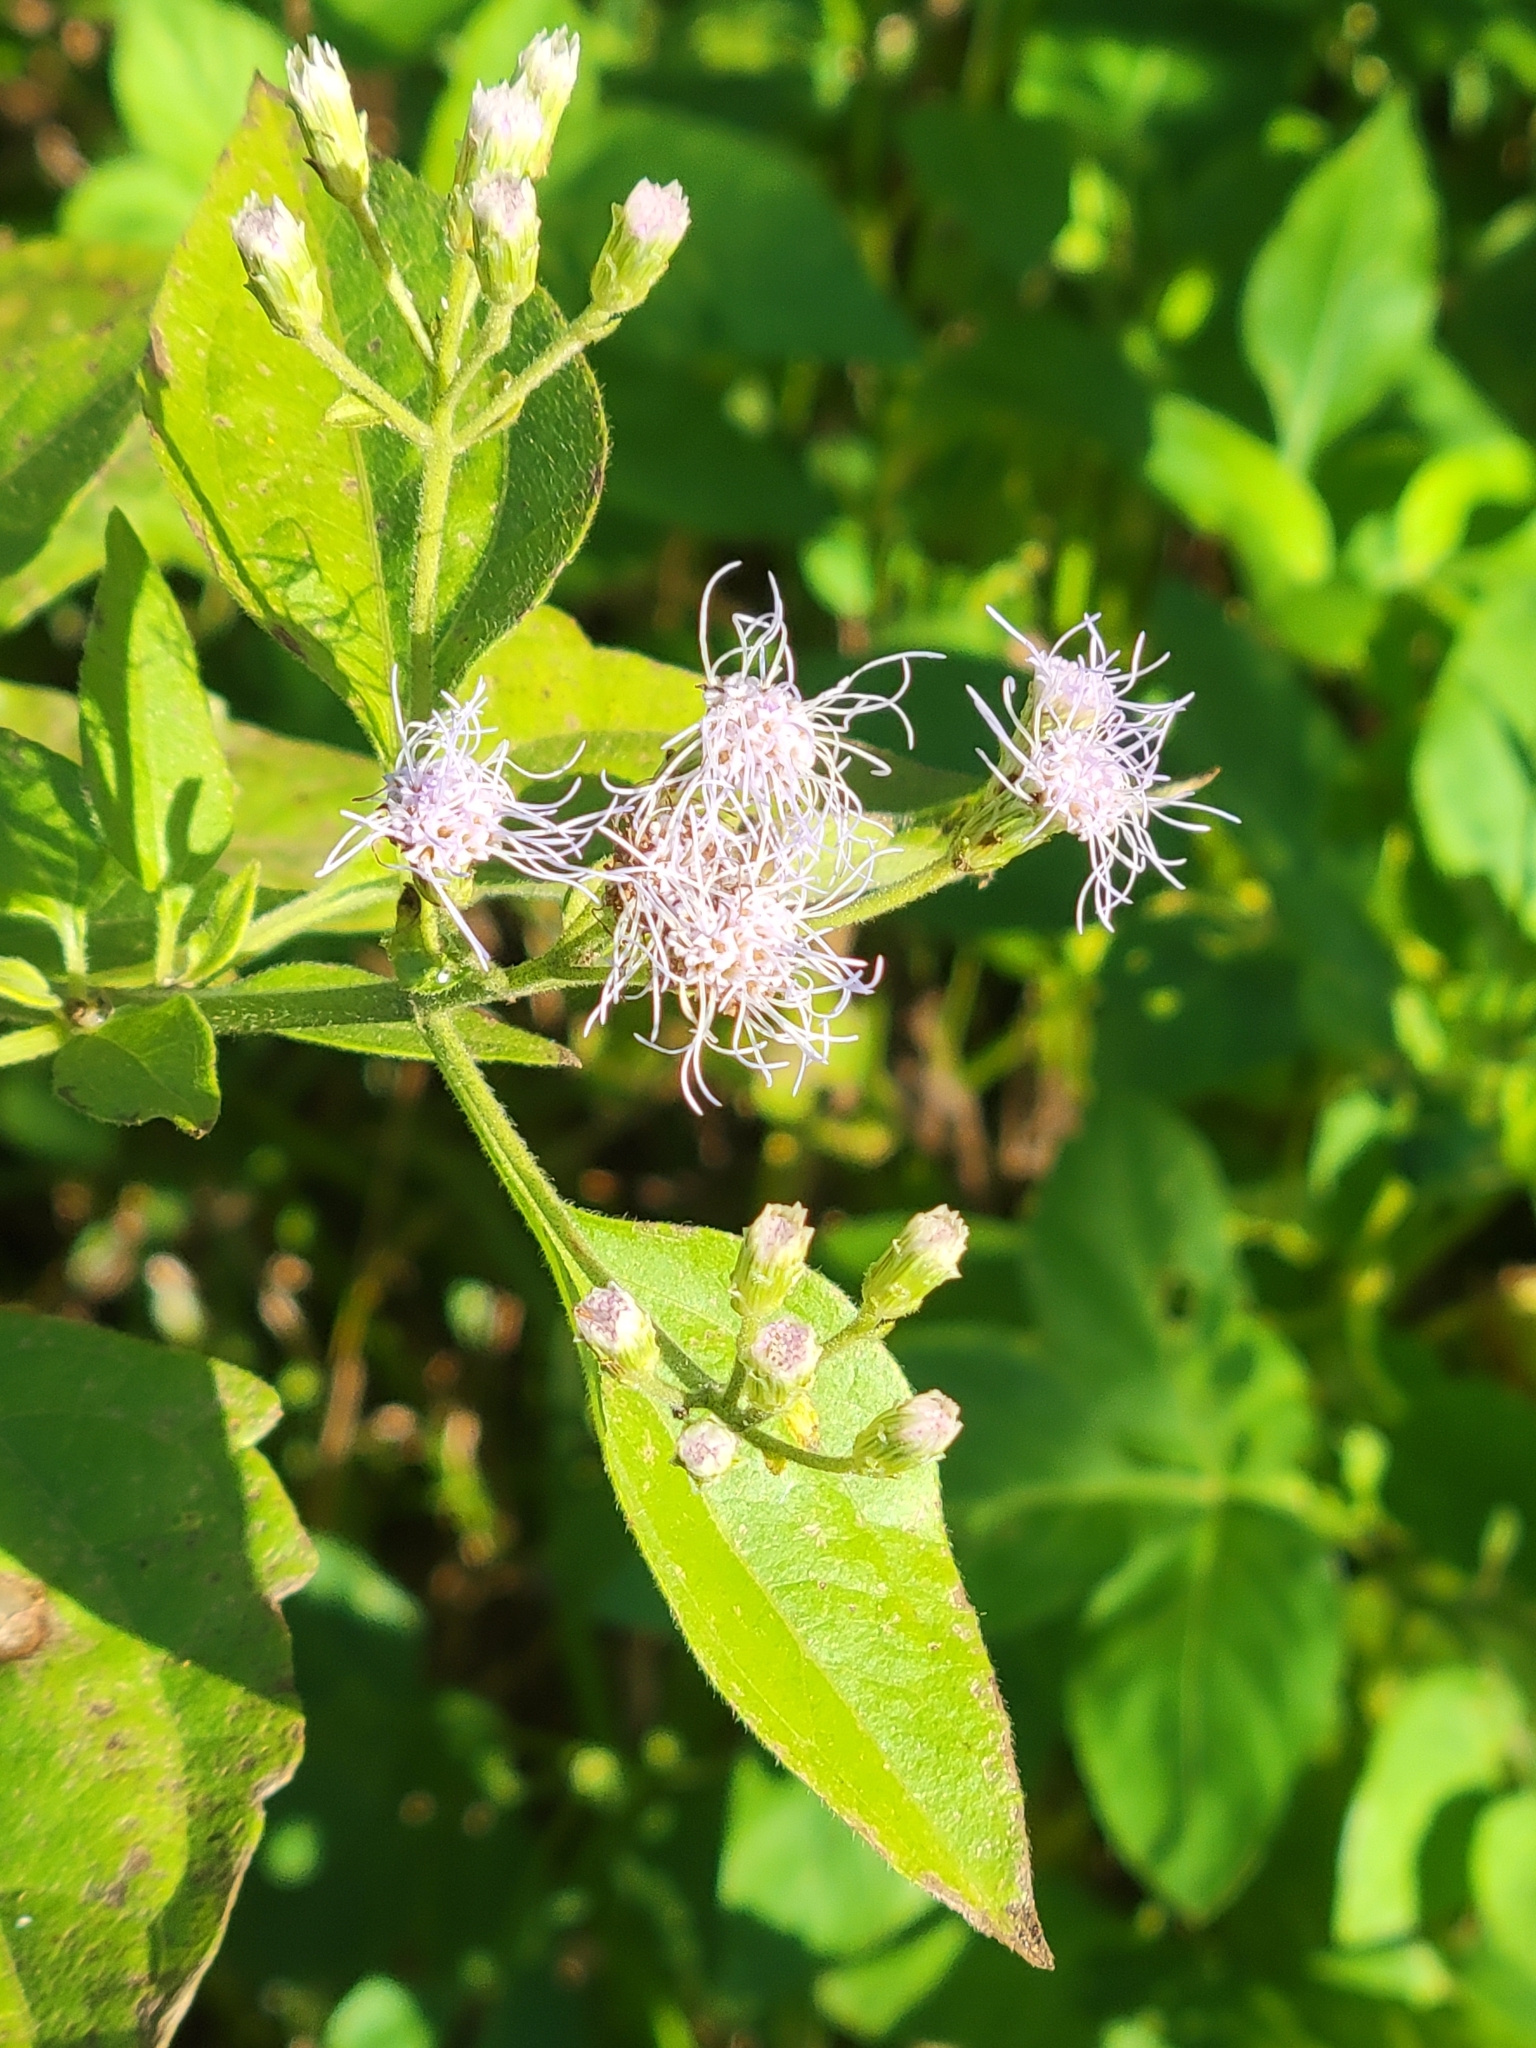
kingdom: Plantae
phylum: Tracheophyta
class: Magnoliopsida
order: Asterales
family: Asteraceae
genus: Chromolaena
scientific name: Chromolaena odorata
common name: Siamweed
